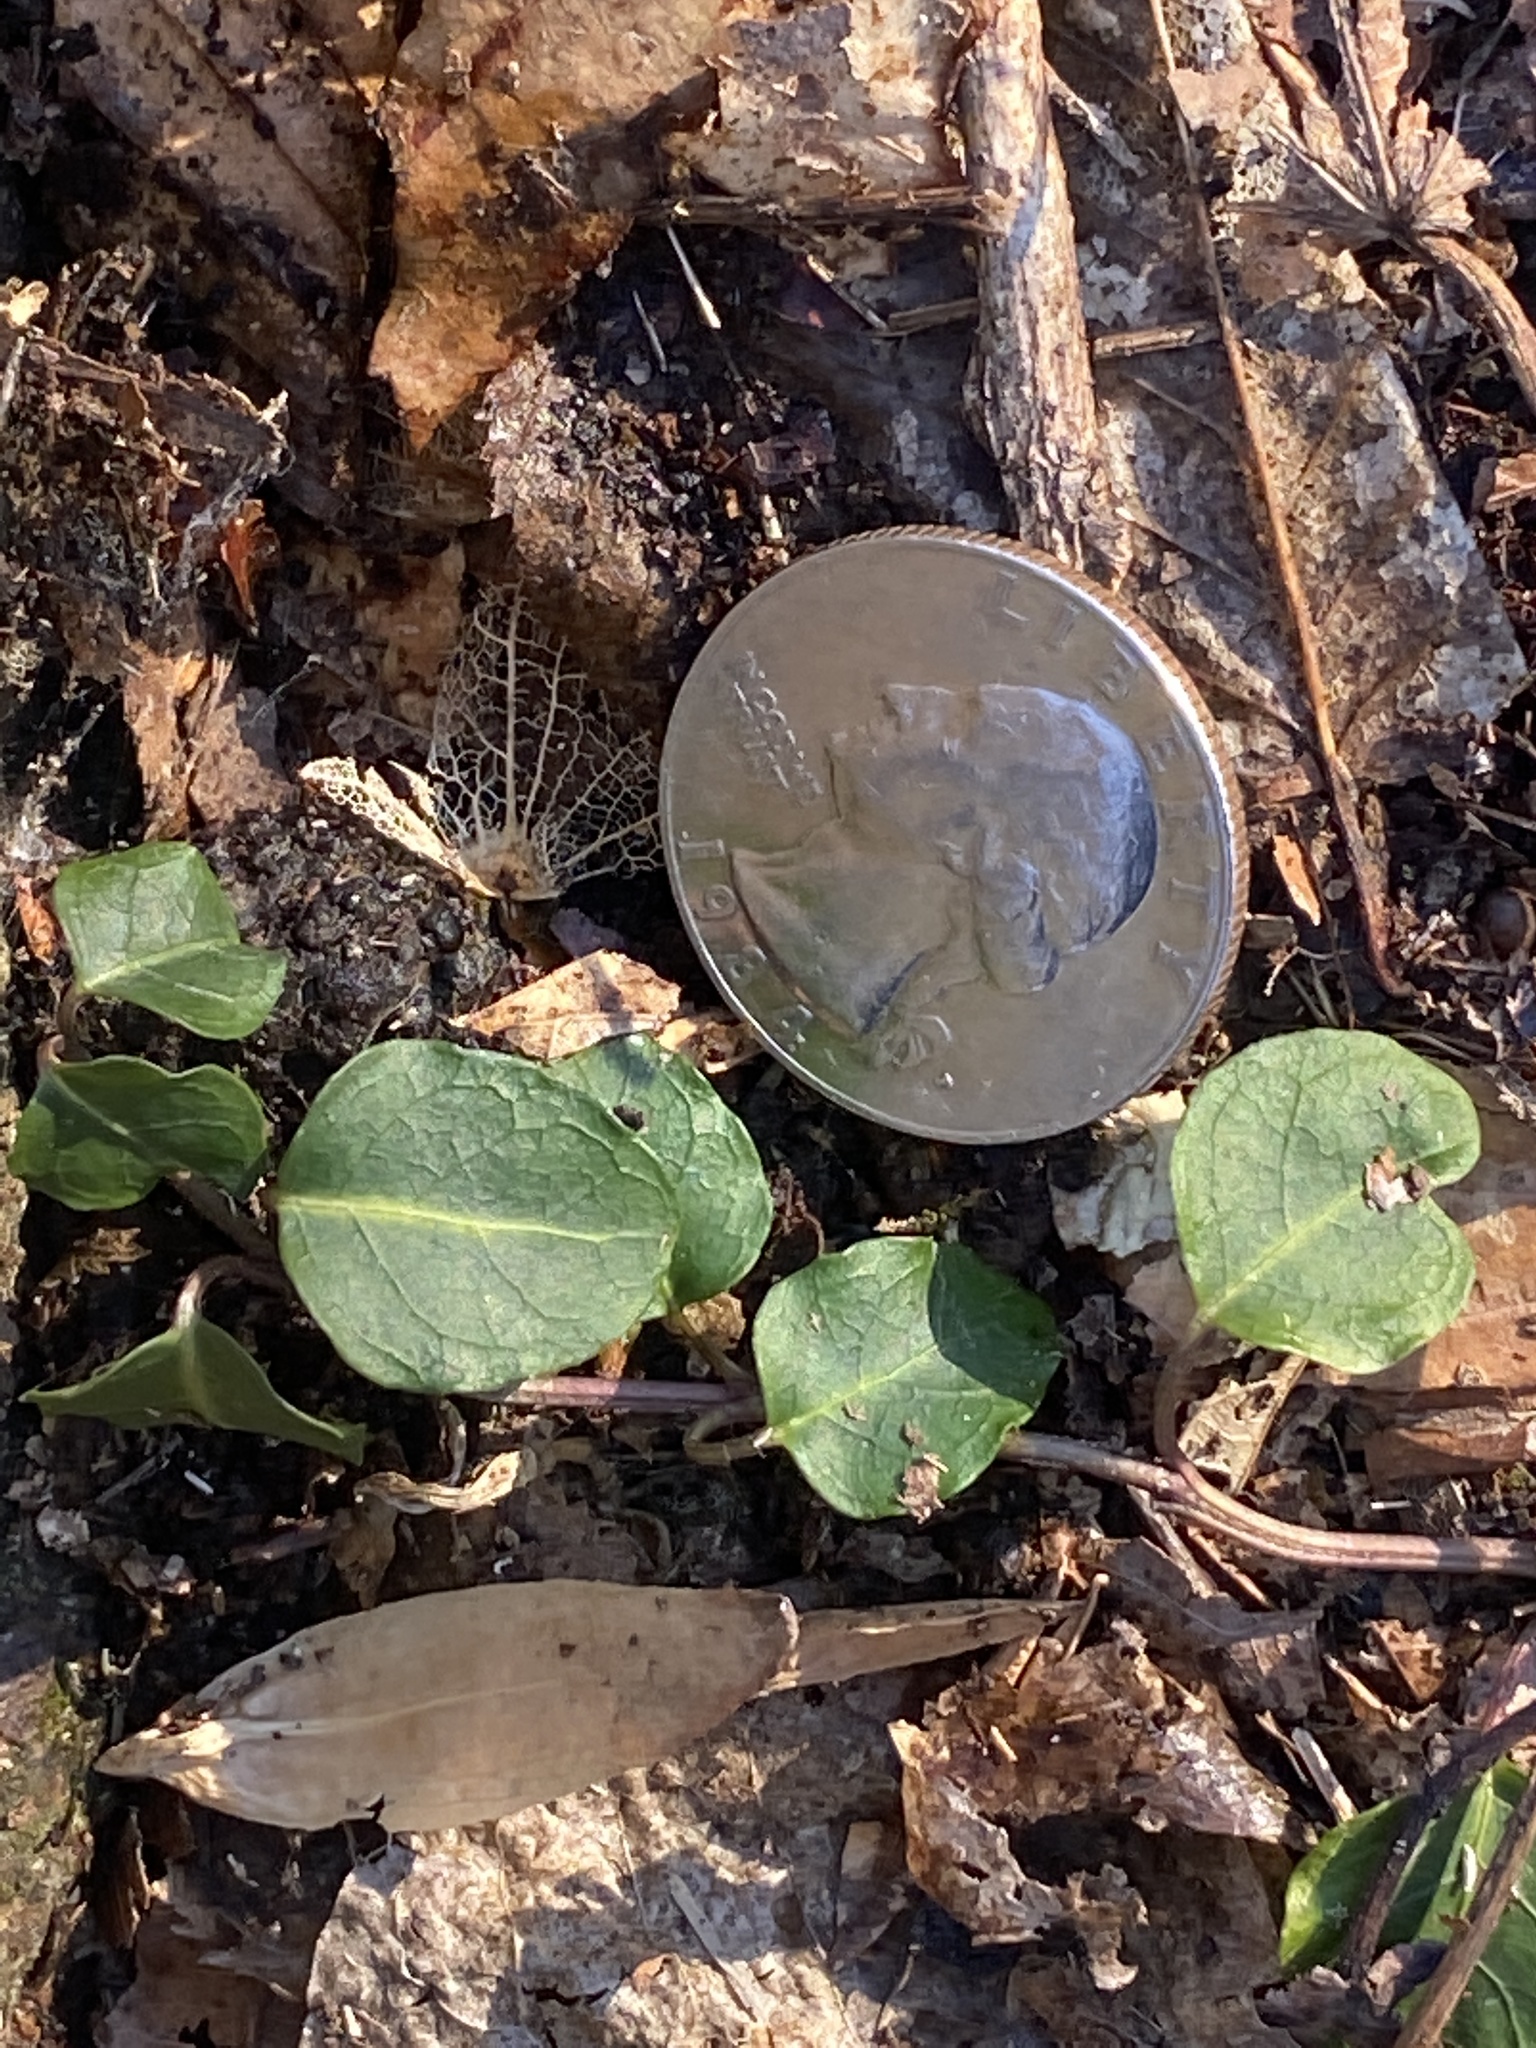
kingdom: Plantae
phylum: Tracheophyta
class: Magnoliopsida
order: Gentianales
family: Rubiaceae
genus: Mitchella
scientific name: Mitchella repens
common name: Partridge-berry
